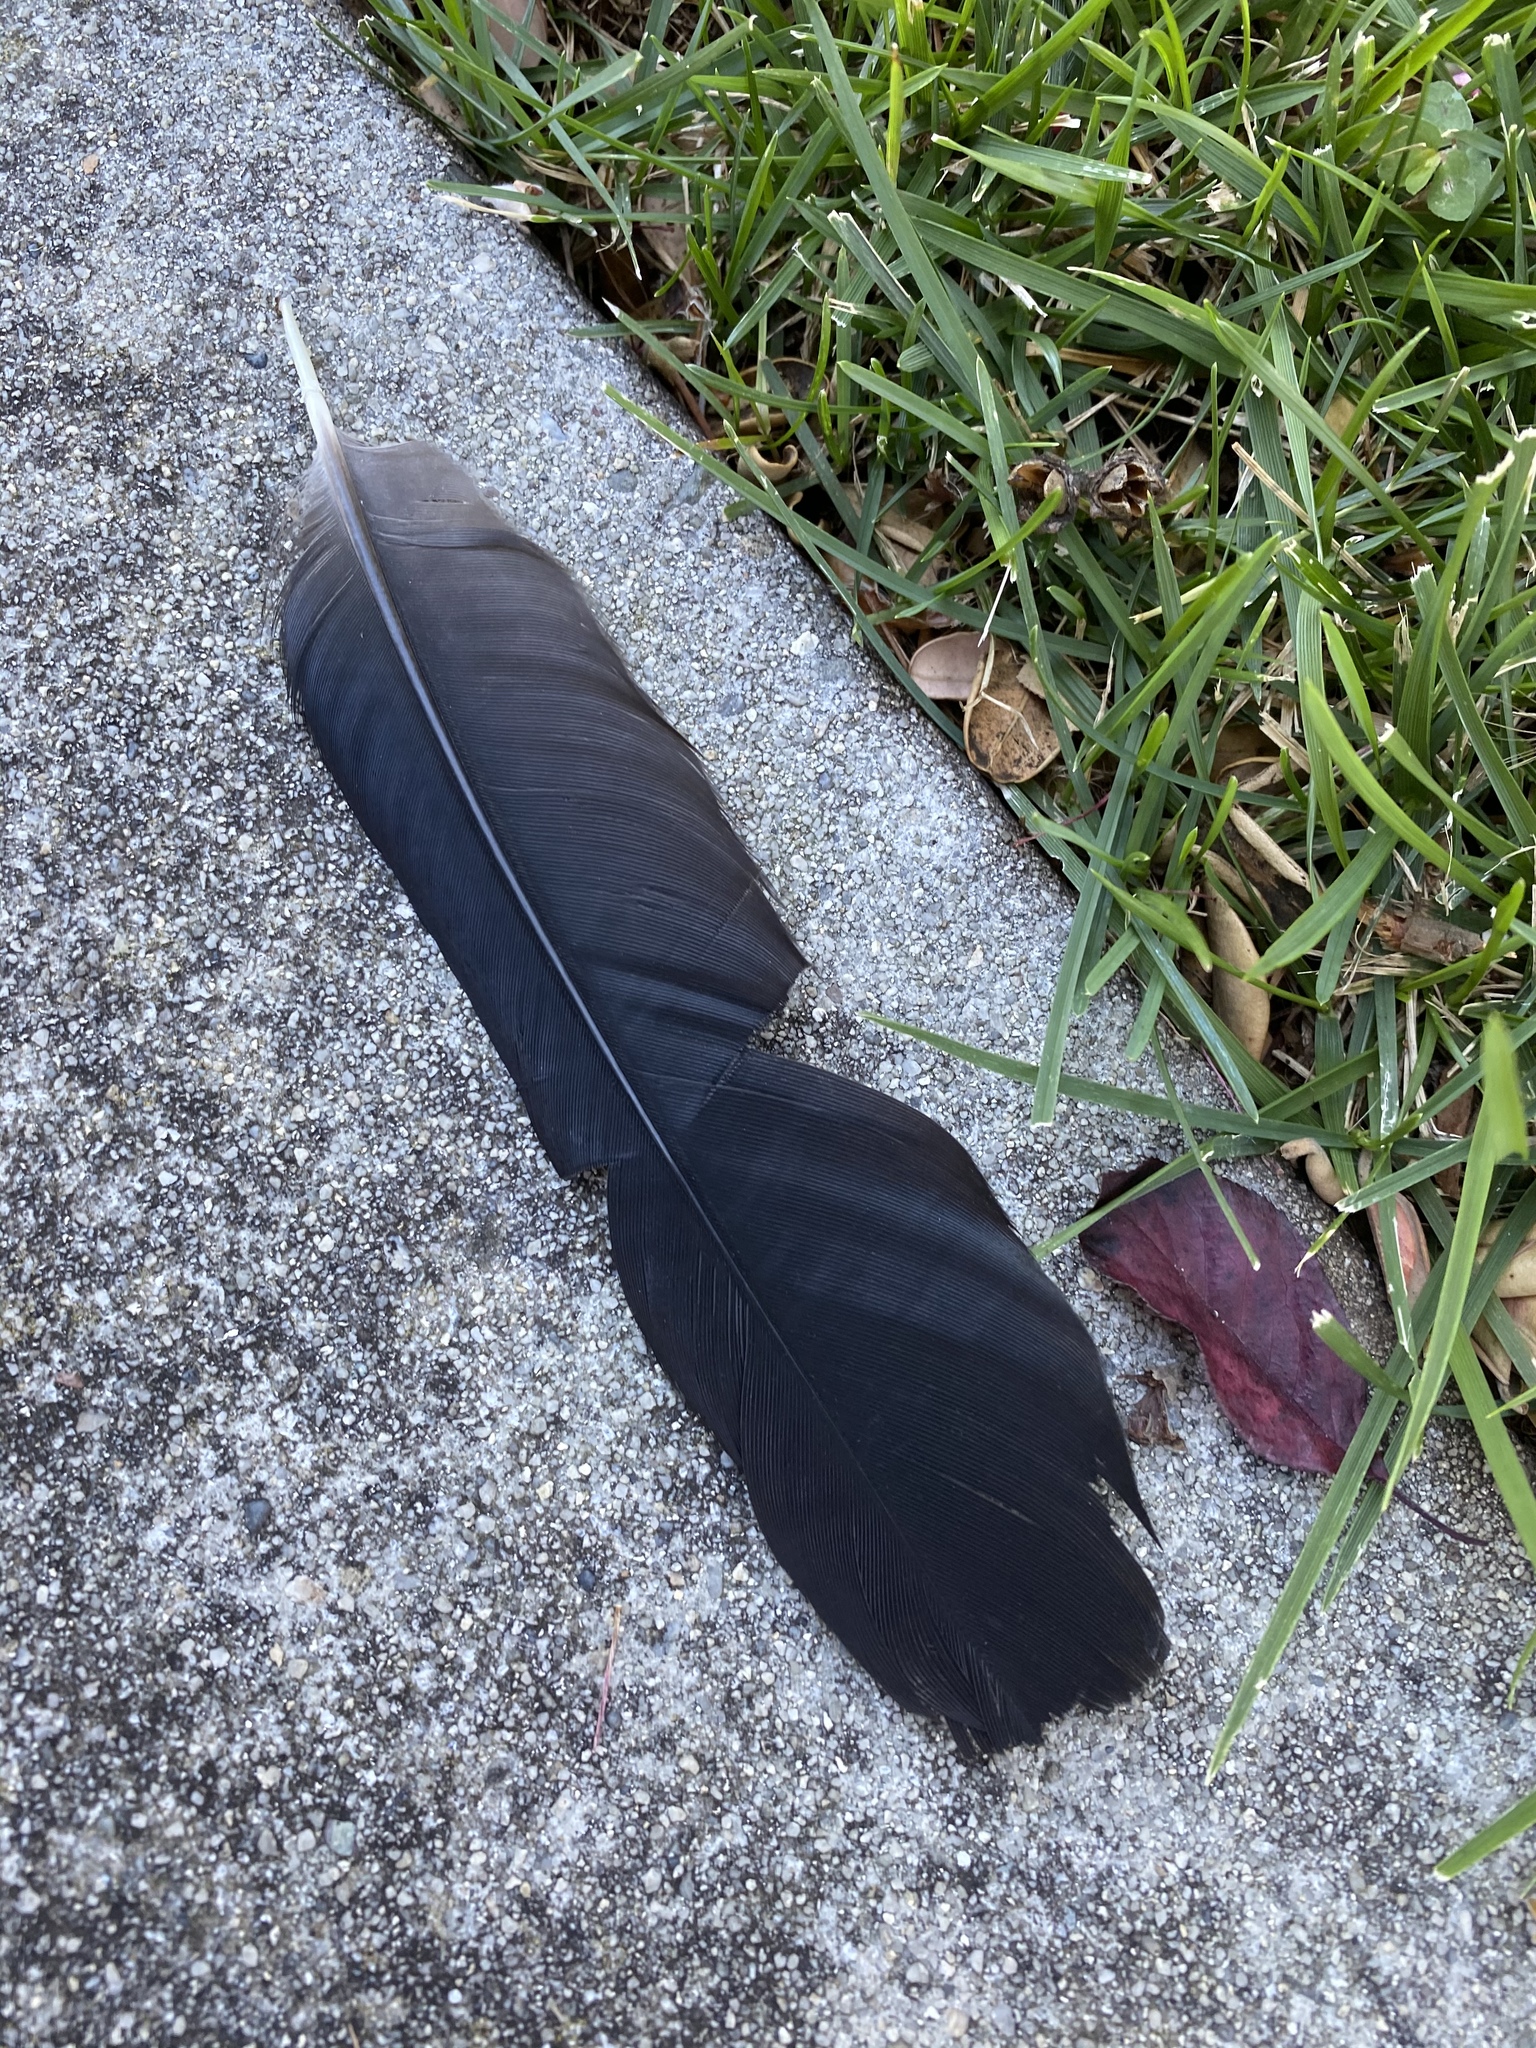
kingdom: Animalia
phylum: Chordata
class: Aves
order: Passeriformes
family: Corvidae
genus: Corvus
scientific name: Corvus brachyrhynchos
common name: American crow
